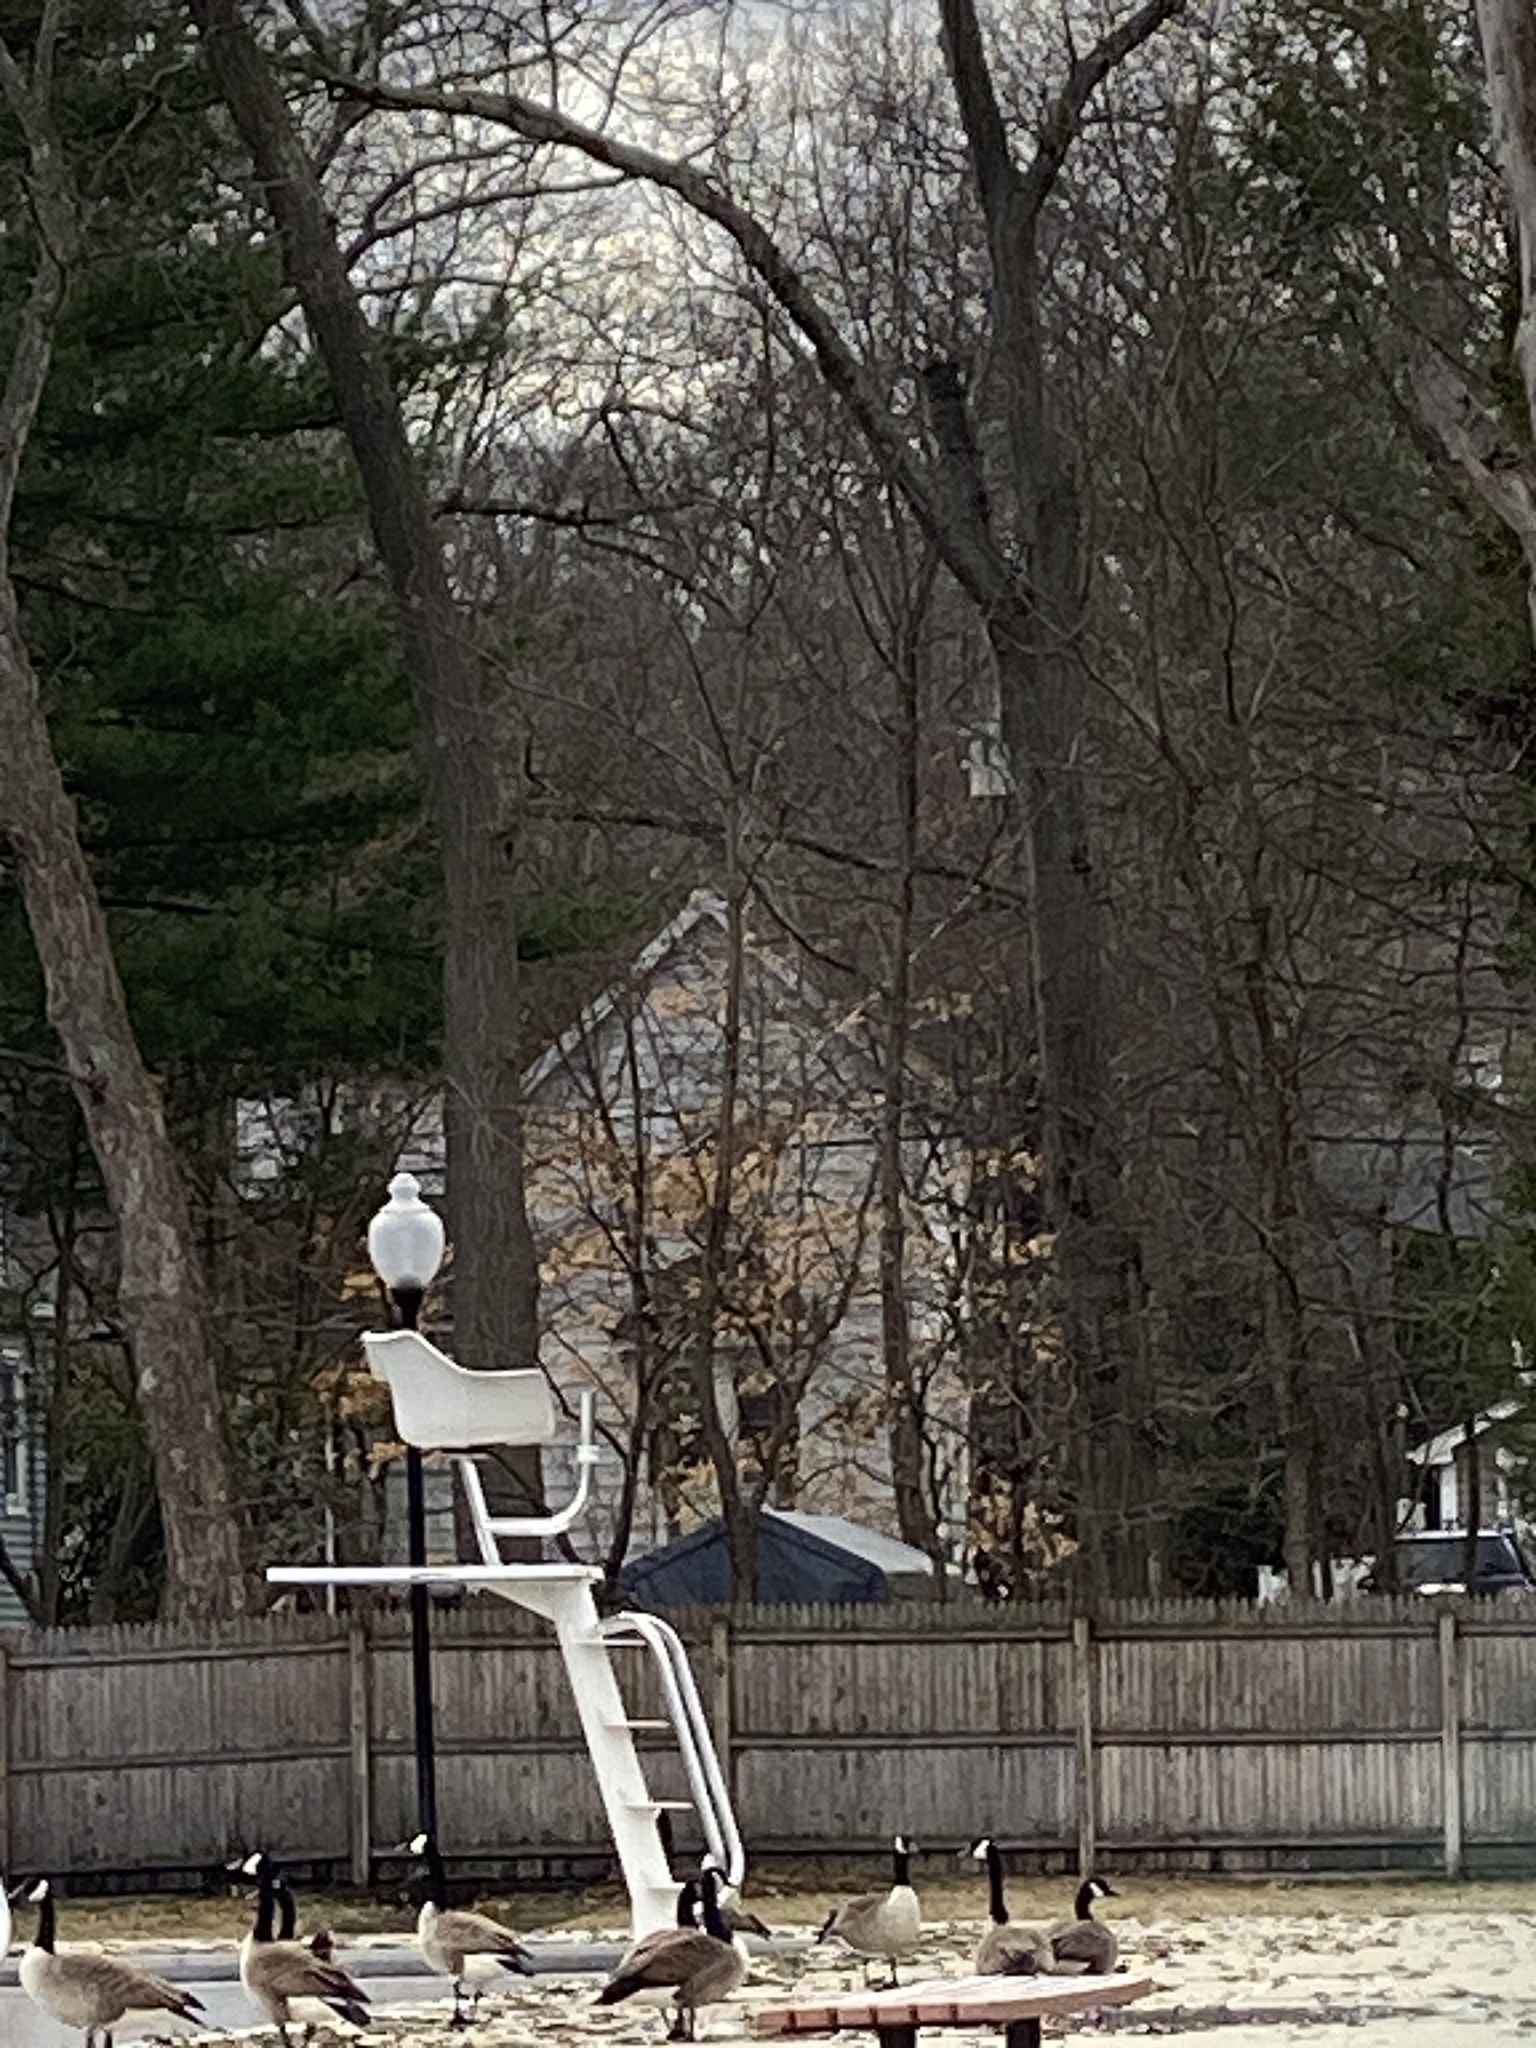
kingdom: Animalia
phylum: Chordata
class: Aves
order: Anseriformes
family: Anatidae
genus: Branta
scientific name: Branta canadensis
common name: Canada goose
